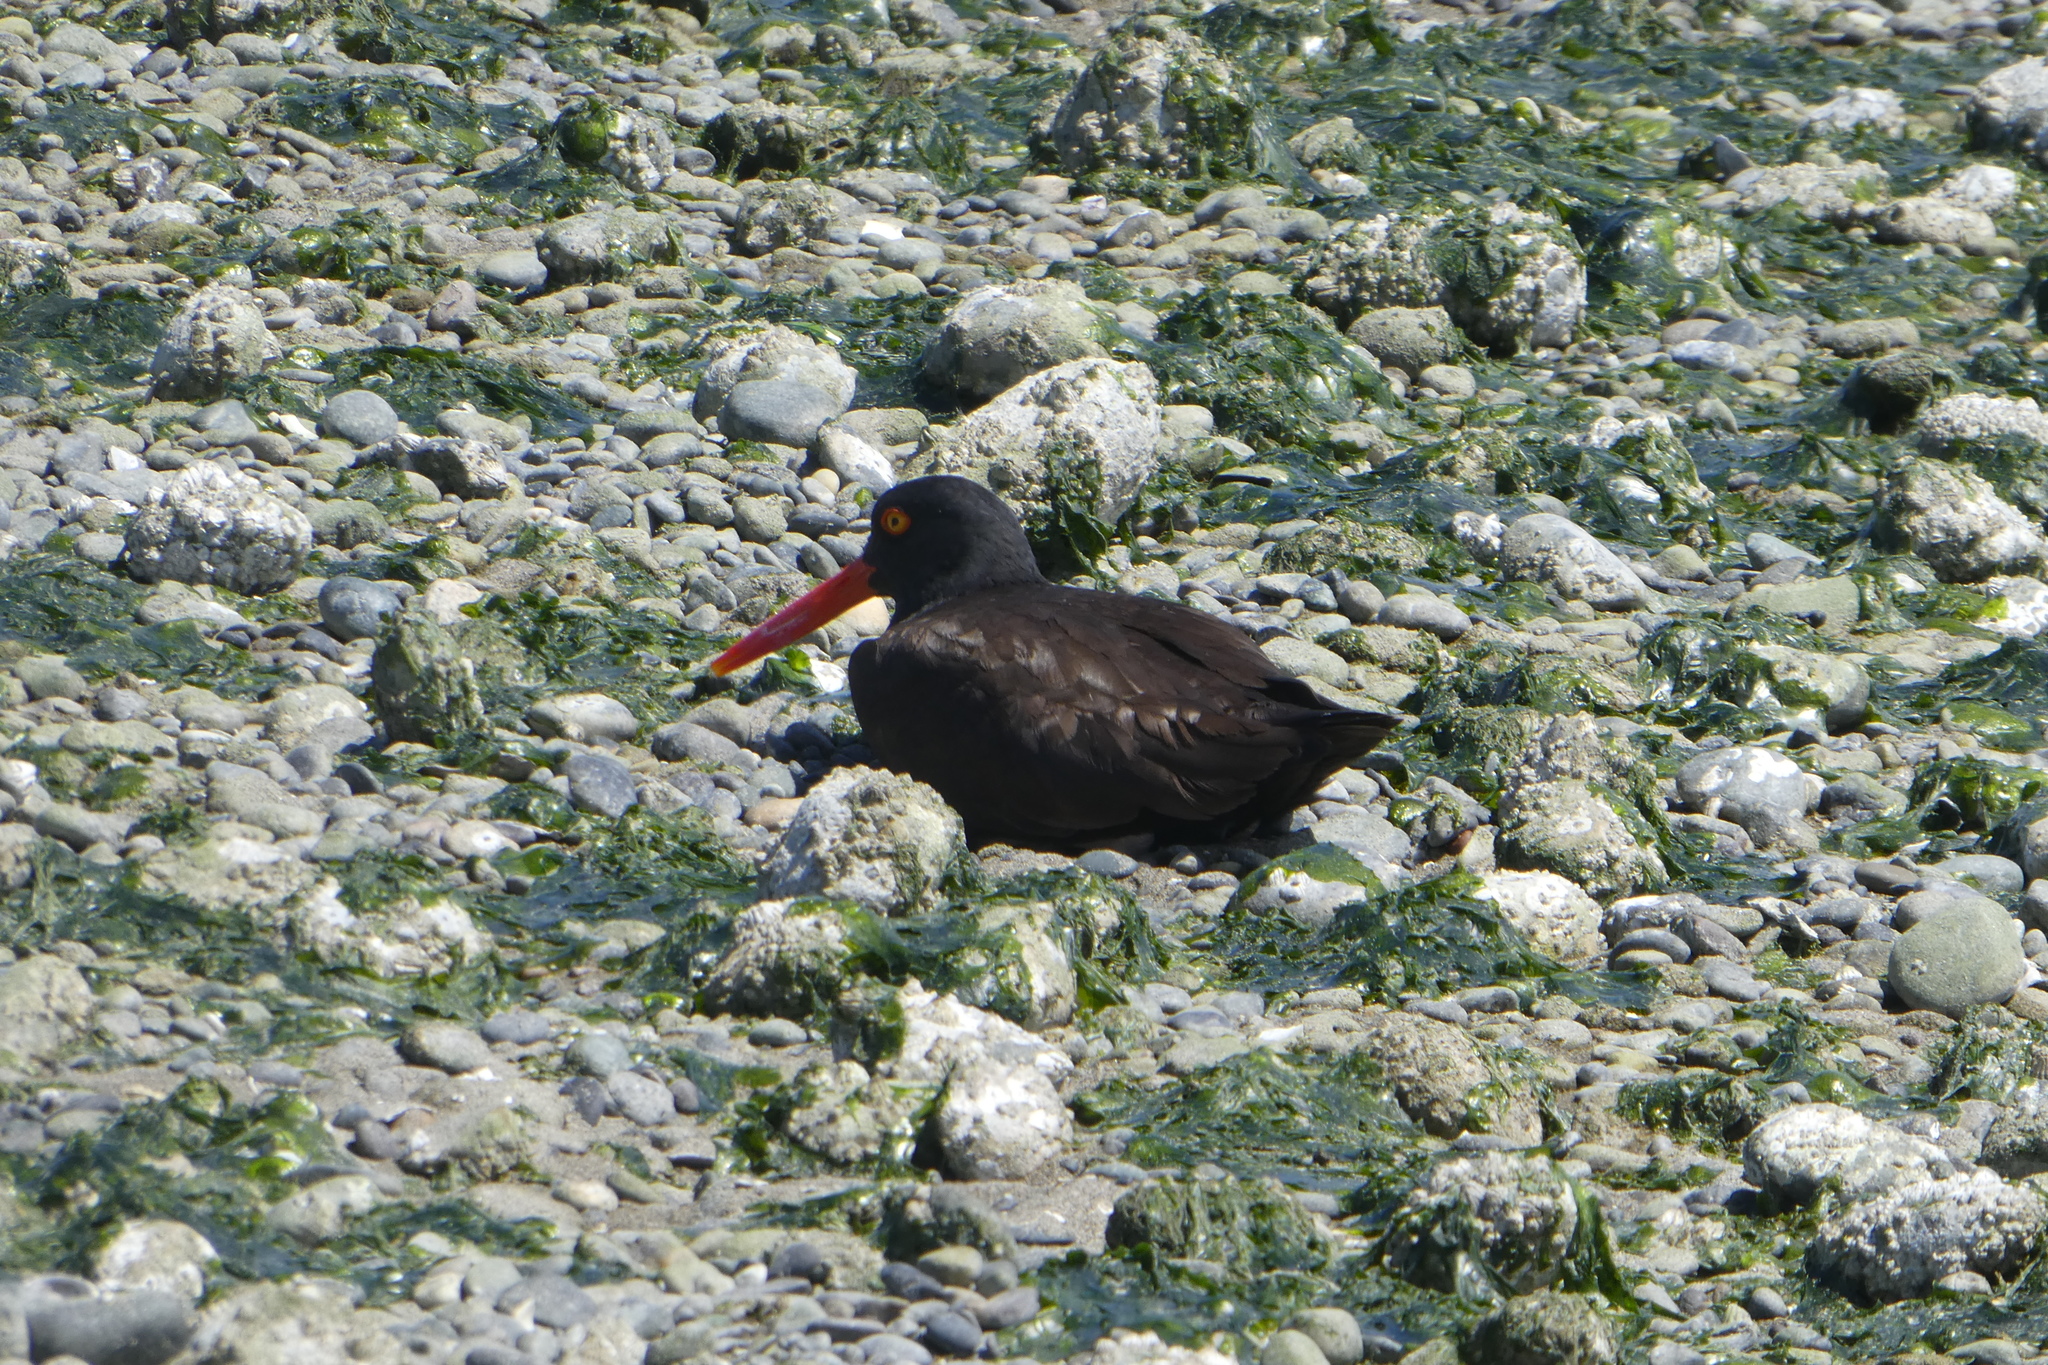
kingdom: Animalia
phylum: Chordata
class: Aves
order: Charadriiformes
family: Haematopodidae
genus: Haematopus
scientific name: Haematopus bachmani
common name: Black oystercatcher
